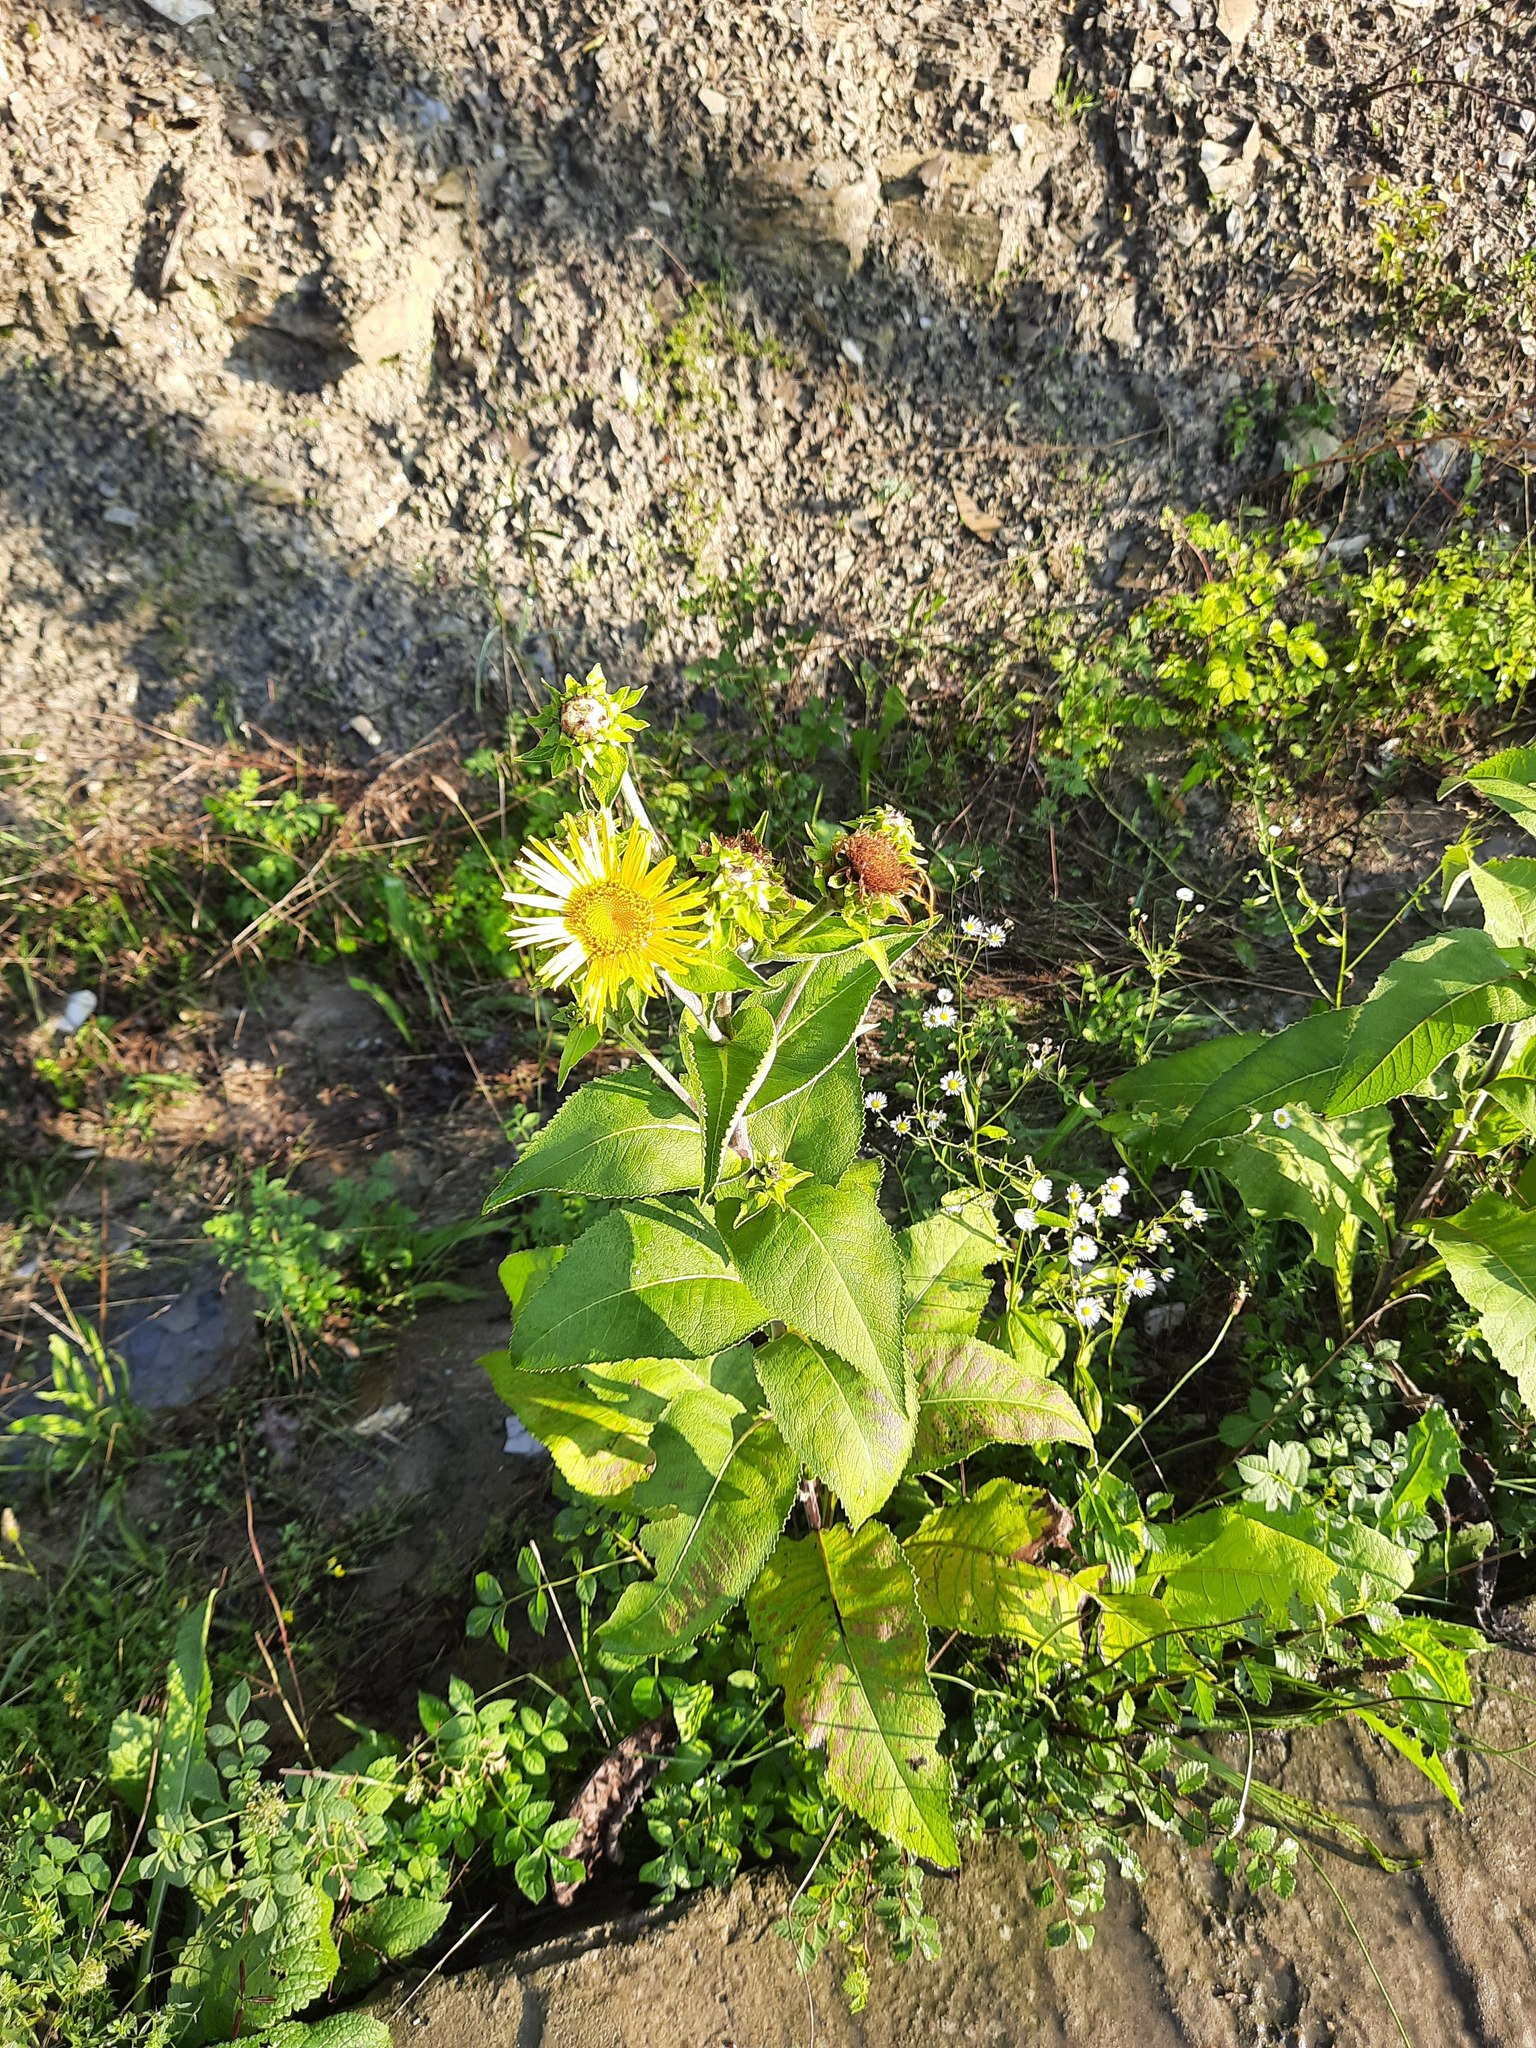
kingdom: Plantae
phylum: Tracheophyta
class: Magnoliopsida
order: Asterales
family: Asteraceae
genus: Inula
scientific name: Inula helenium
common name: Elecampane
